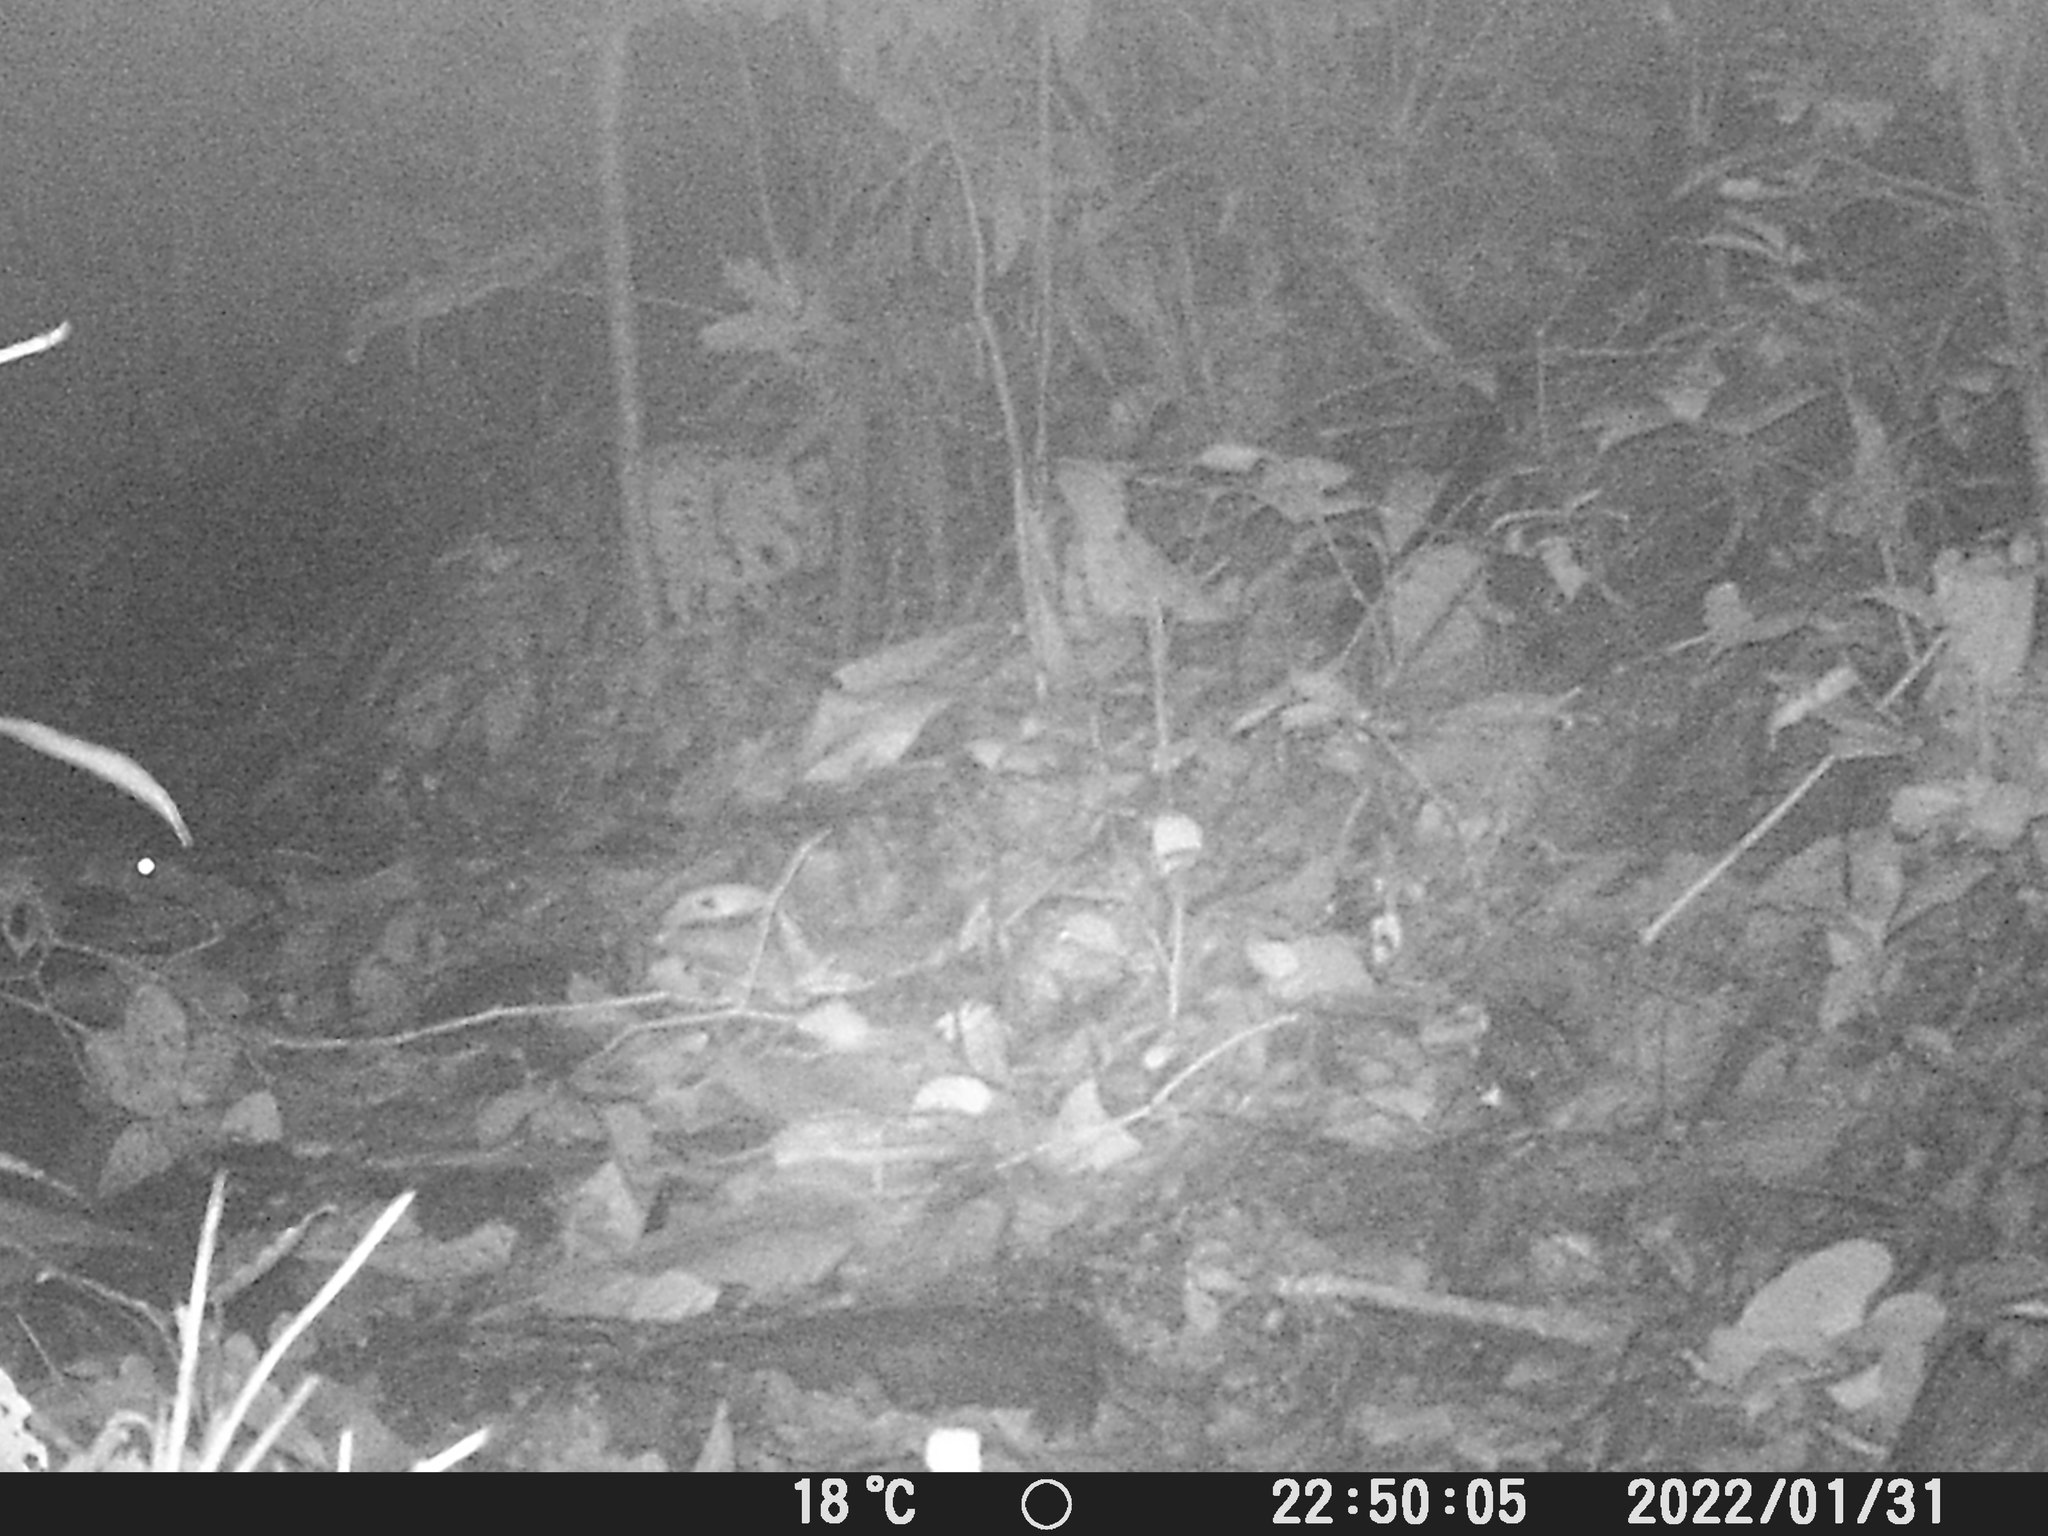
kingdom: Animalia
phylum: Chordata
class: Mammalia
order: Rodentia
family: Cuniculidae
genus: Cuniculus
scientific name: Cuniculus paca
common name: Lowland paca
